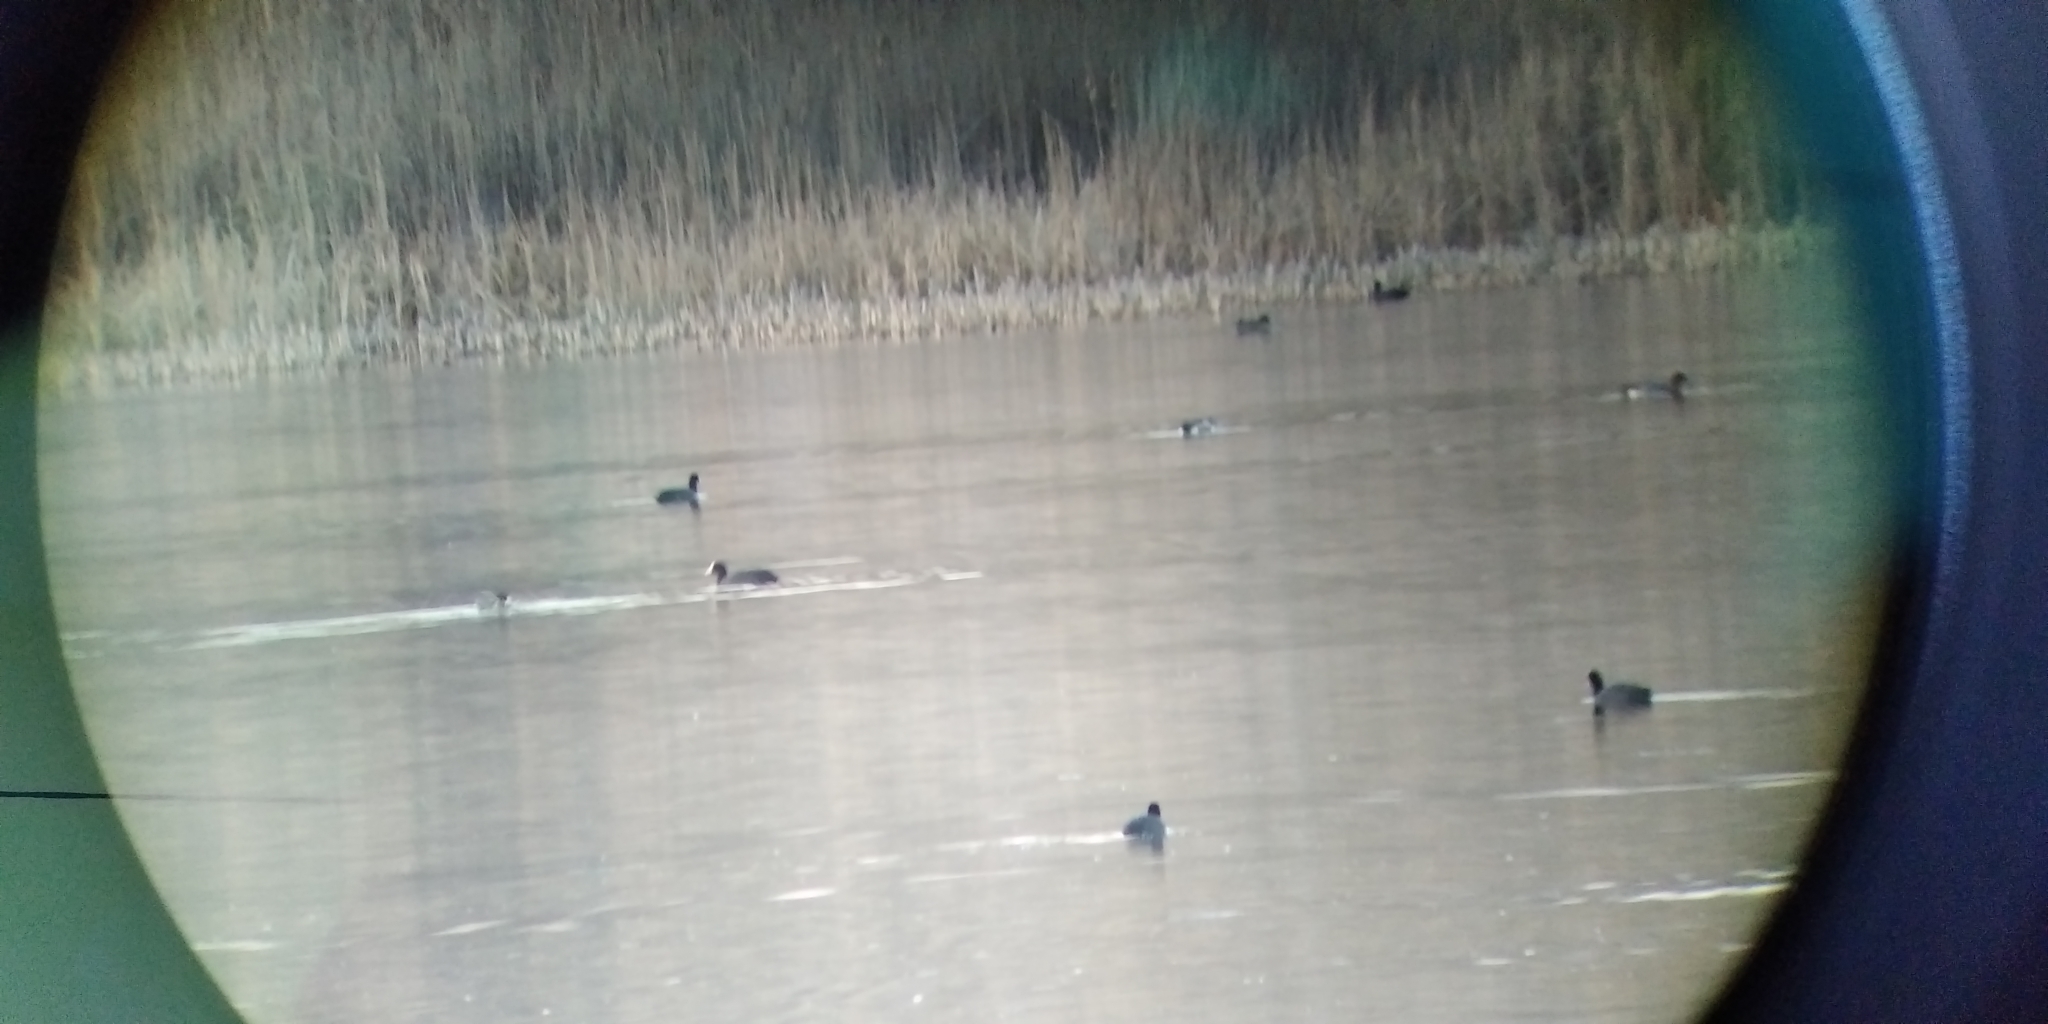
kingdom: Animalia
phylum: Chordata
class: Aves
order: Gruiformes
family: Rallidae
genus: Fulica
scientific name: Fulica atra
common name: Eurasian coot
